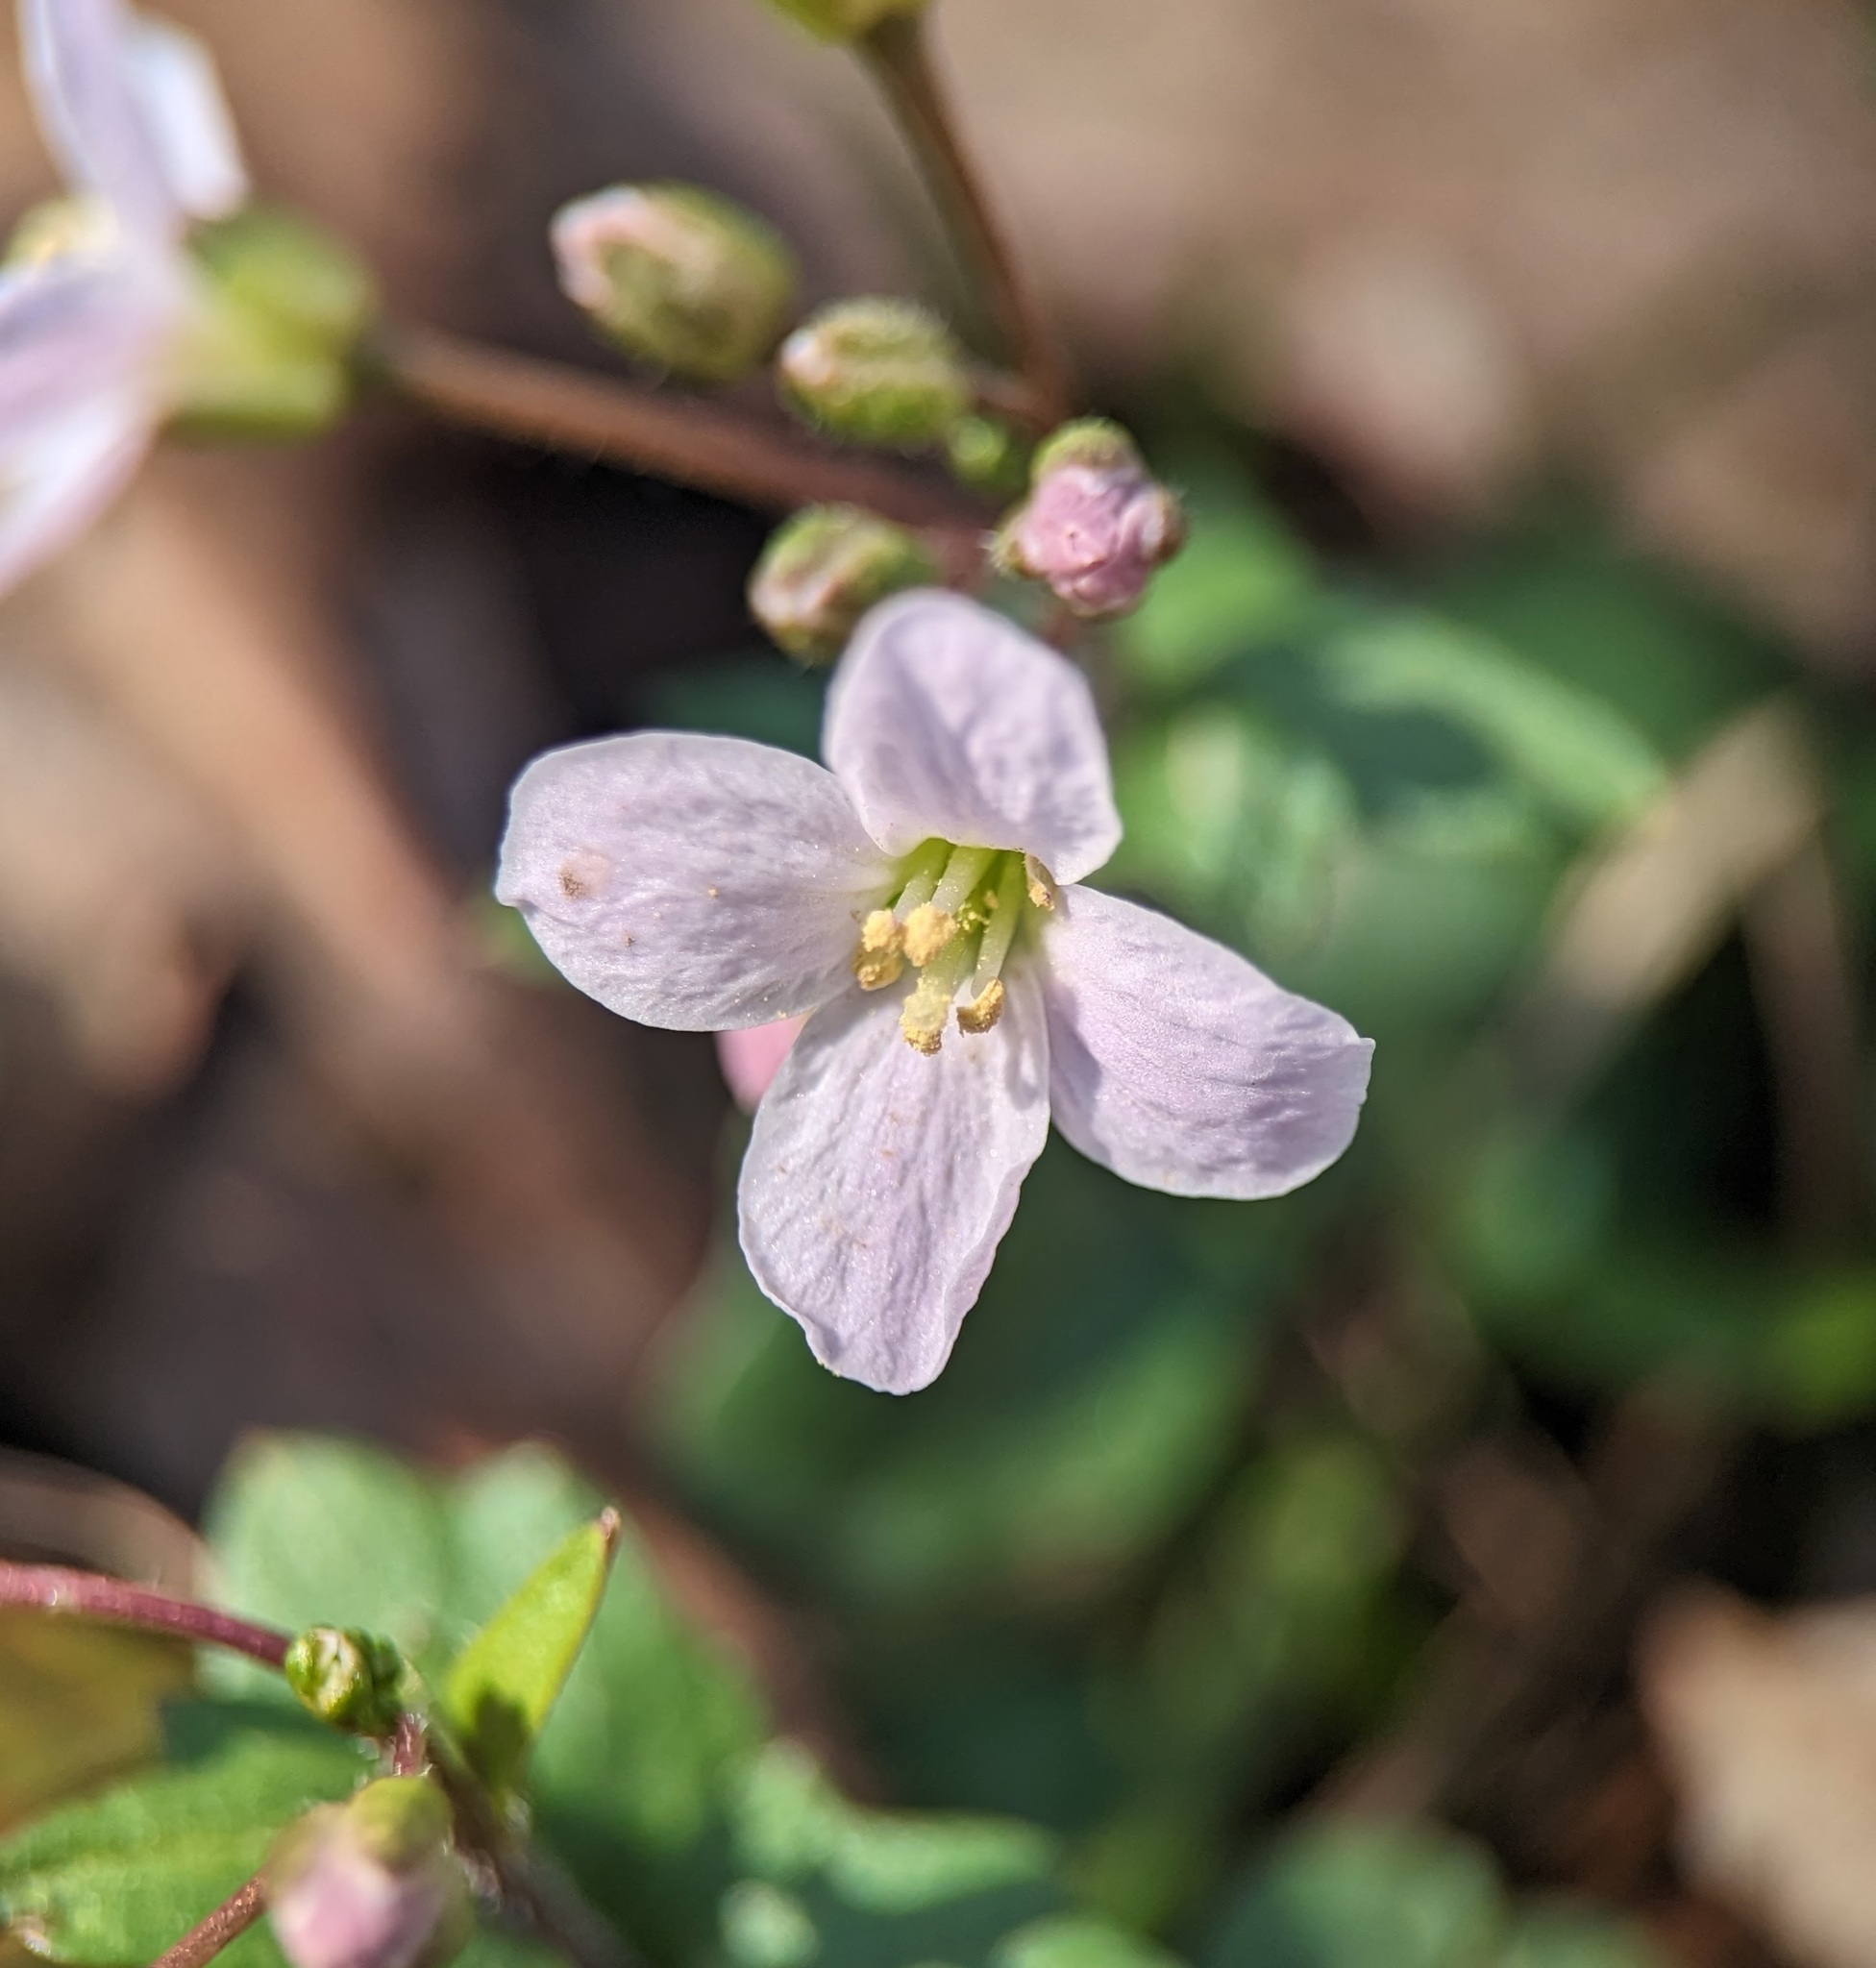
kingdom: Plantae
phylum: Tracheophyta
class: Magnoliopsida
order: Brassicales
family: Brassicaceae
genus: Cardamine
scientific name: Cardamine douglassii
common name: Purple cress
